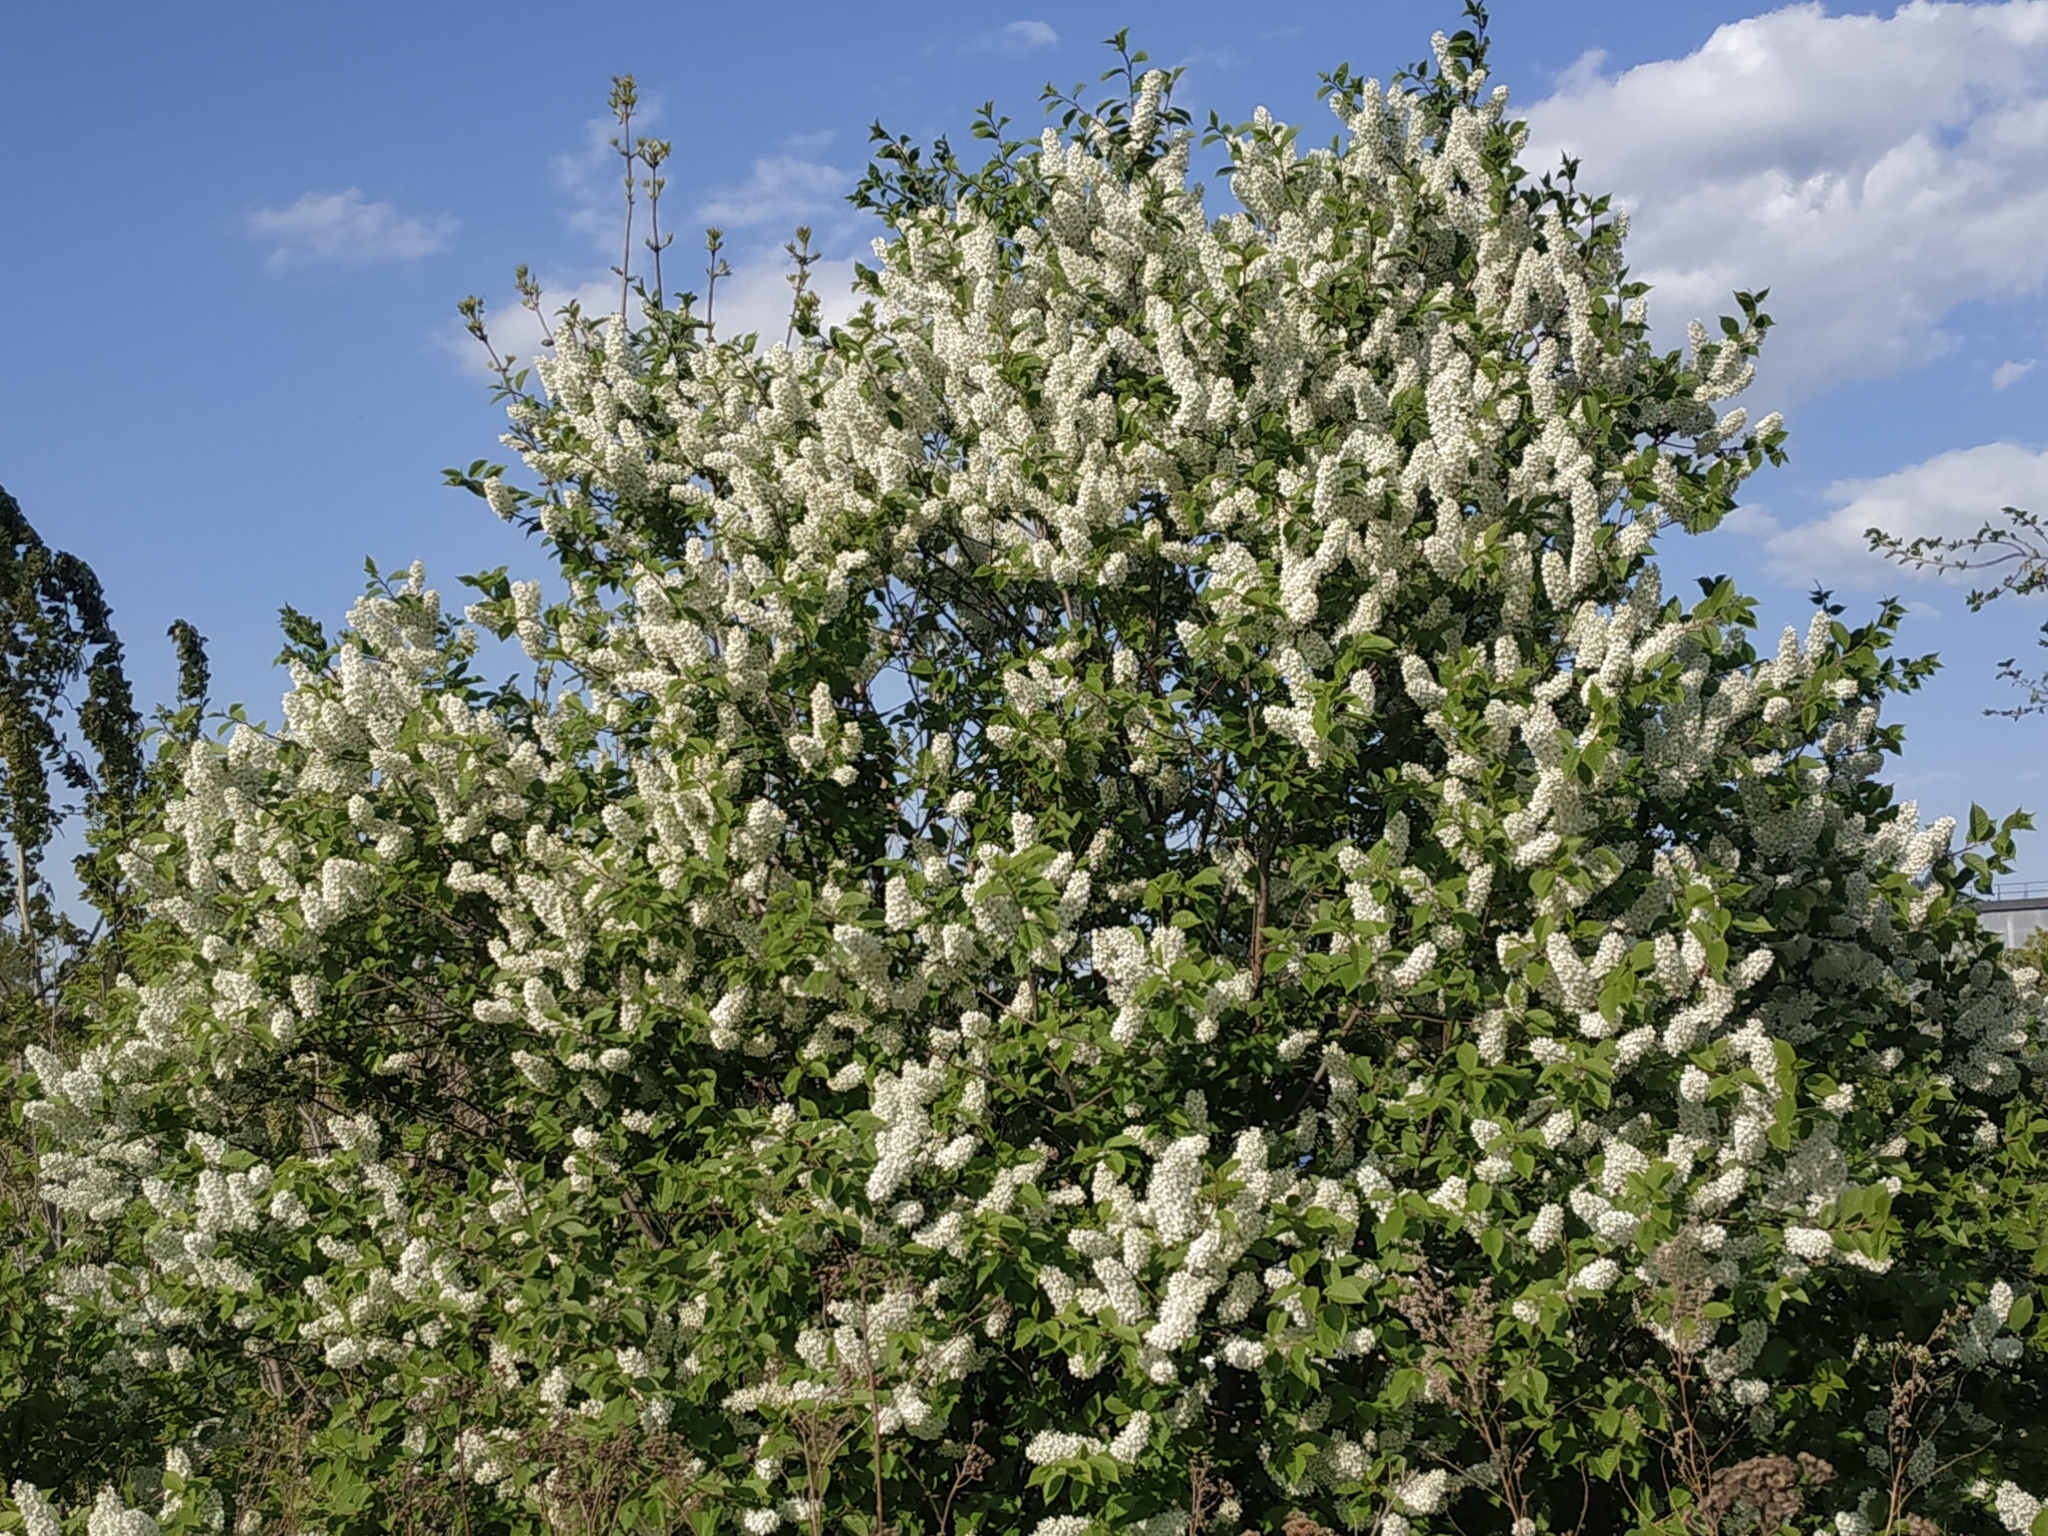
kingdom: Plantae
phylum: Tracheophyta
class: Magnoliopsida
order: Rosales
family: Rosaceae
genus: Prunus
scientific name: Prunus padus
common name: Bird cherry
